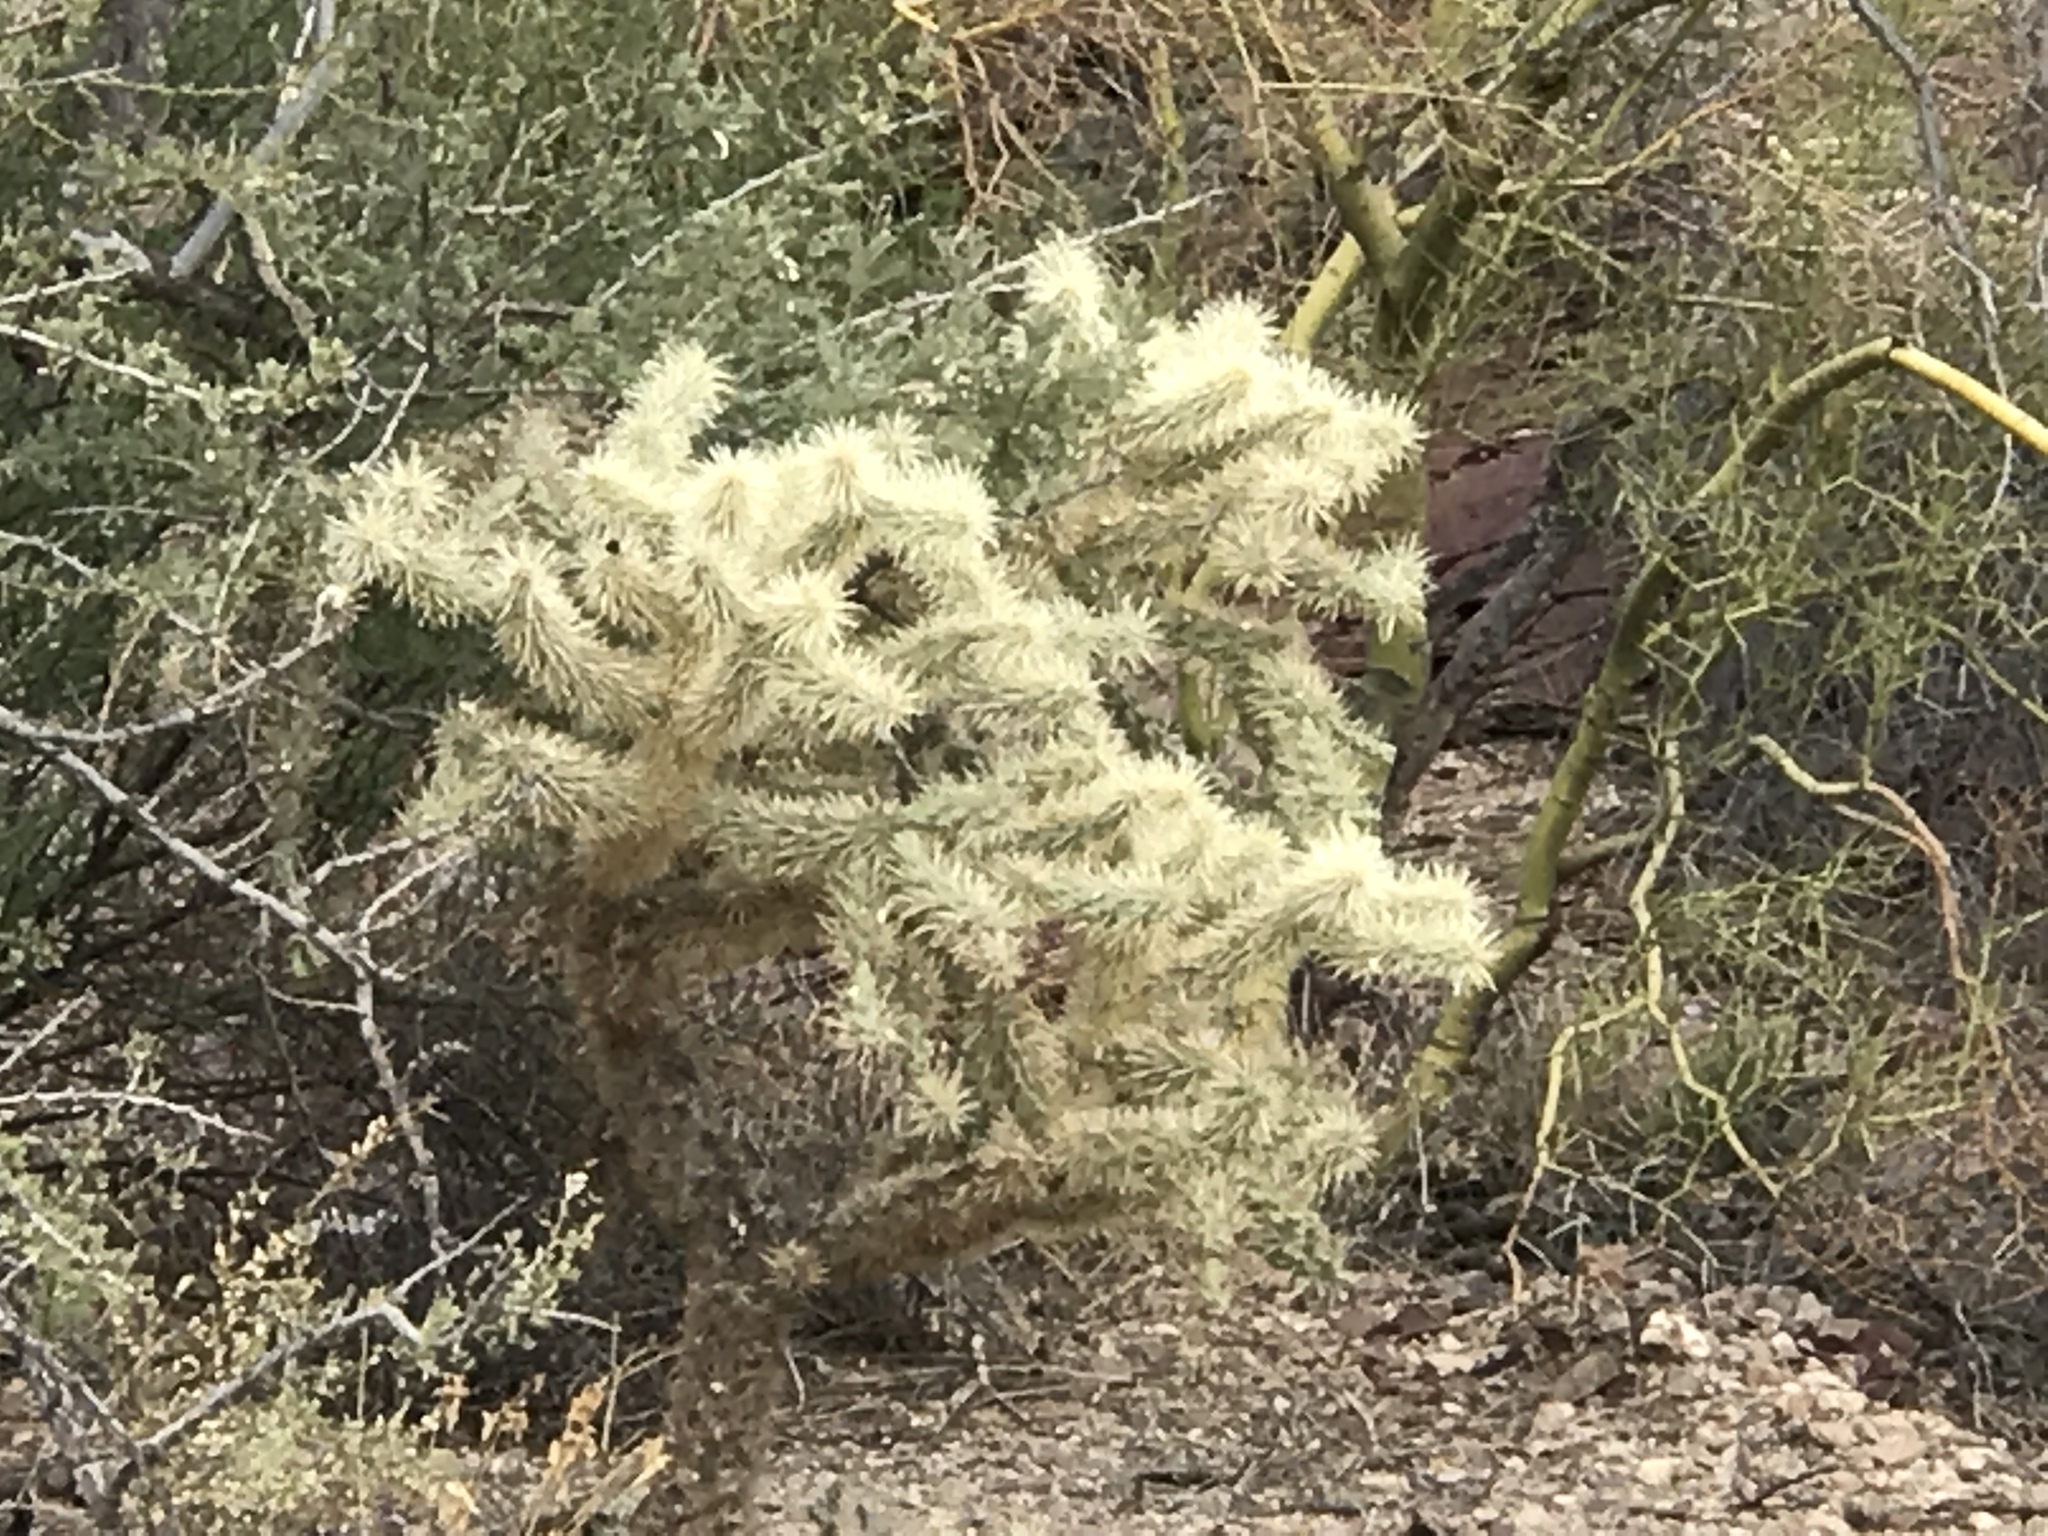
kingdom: Plantae
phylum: Tracheophyta
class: Magnoliopsida
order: Caryophyllales
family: Cactaceae
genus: Cylindropuntia
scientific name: Cylindropuntia fulgida
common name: Jumping cholla
